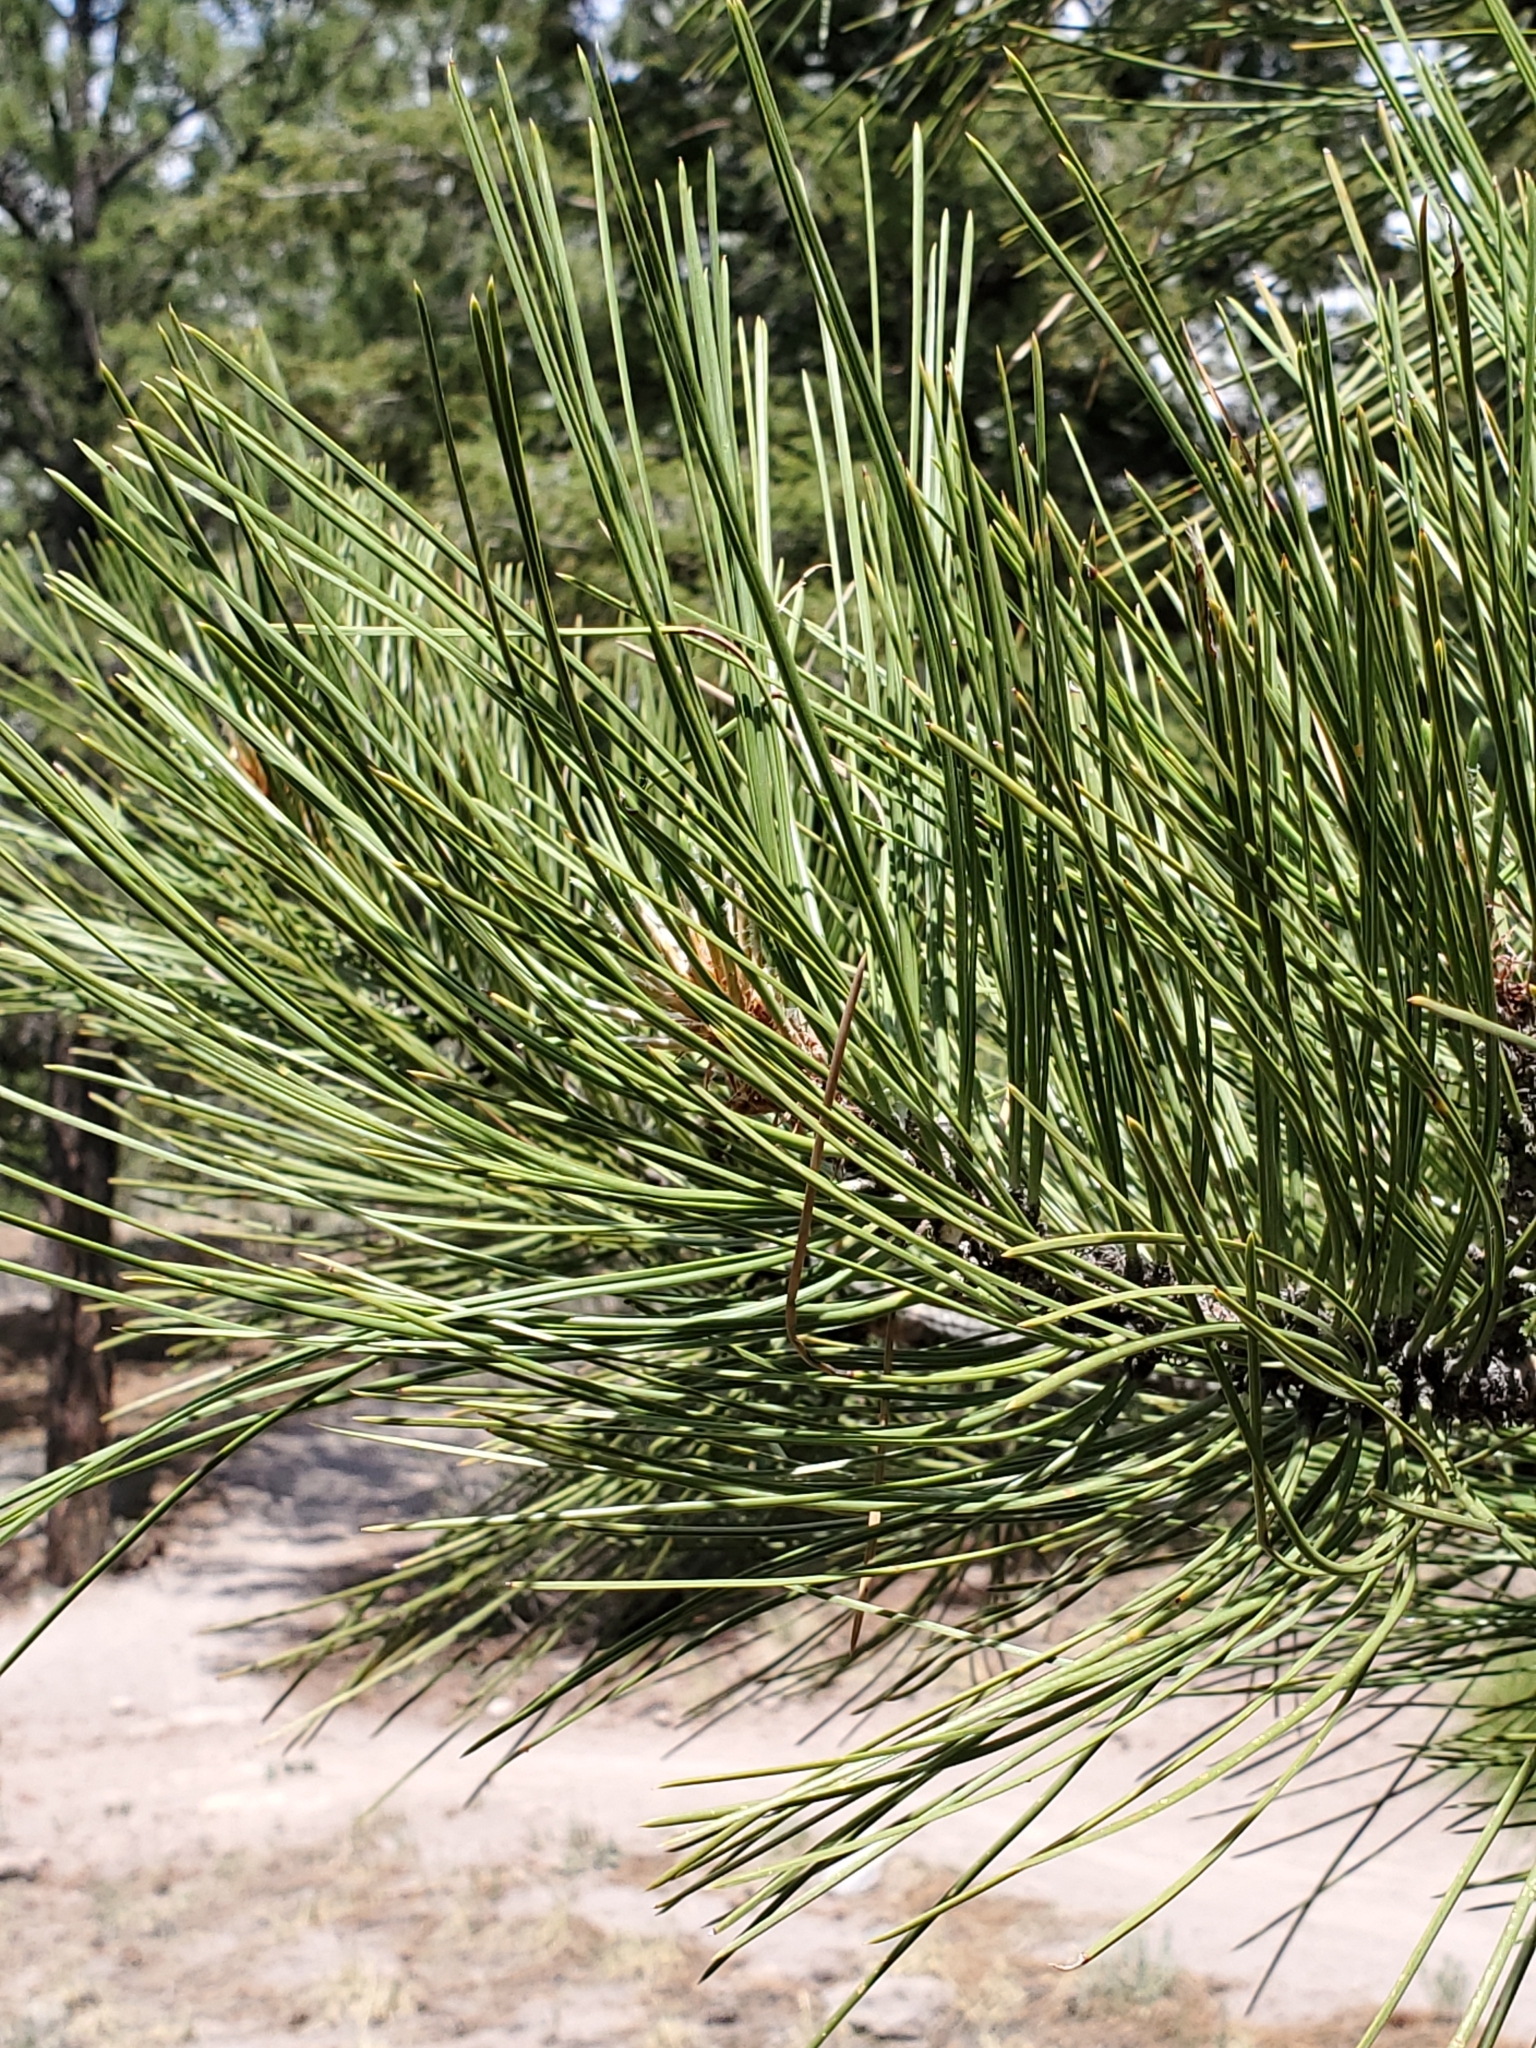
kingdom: Plantae
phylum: Tracheophyta
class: Pinopsida
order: Pinales
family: Pinaceae
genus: Pinus
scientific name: Pinus ponderosa
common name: Western yellow-pine
